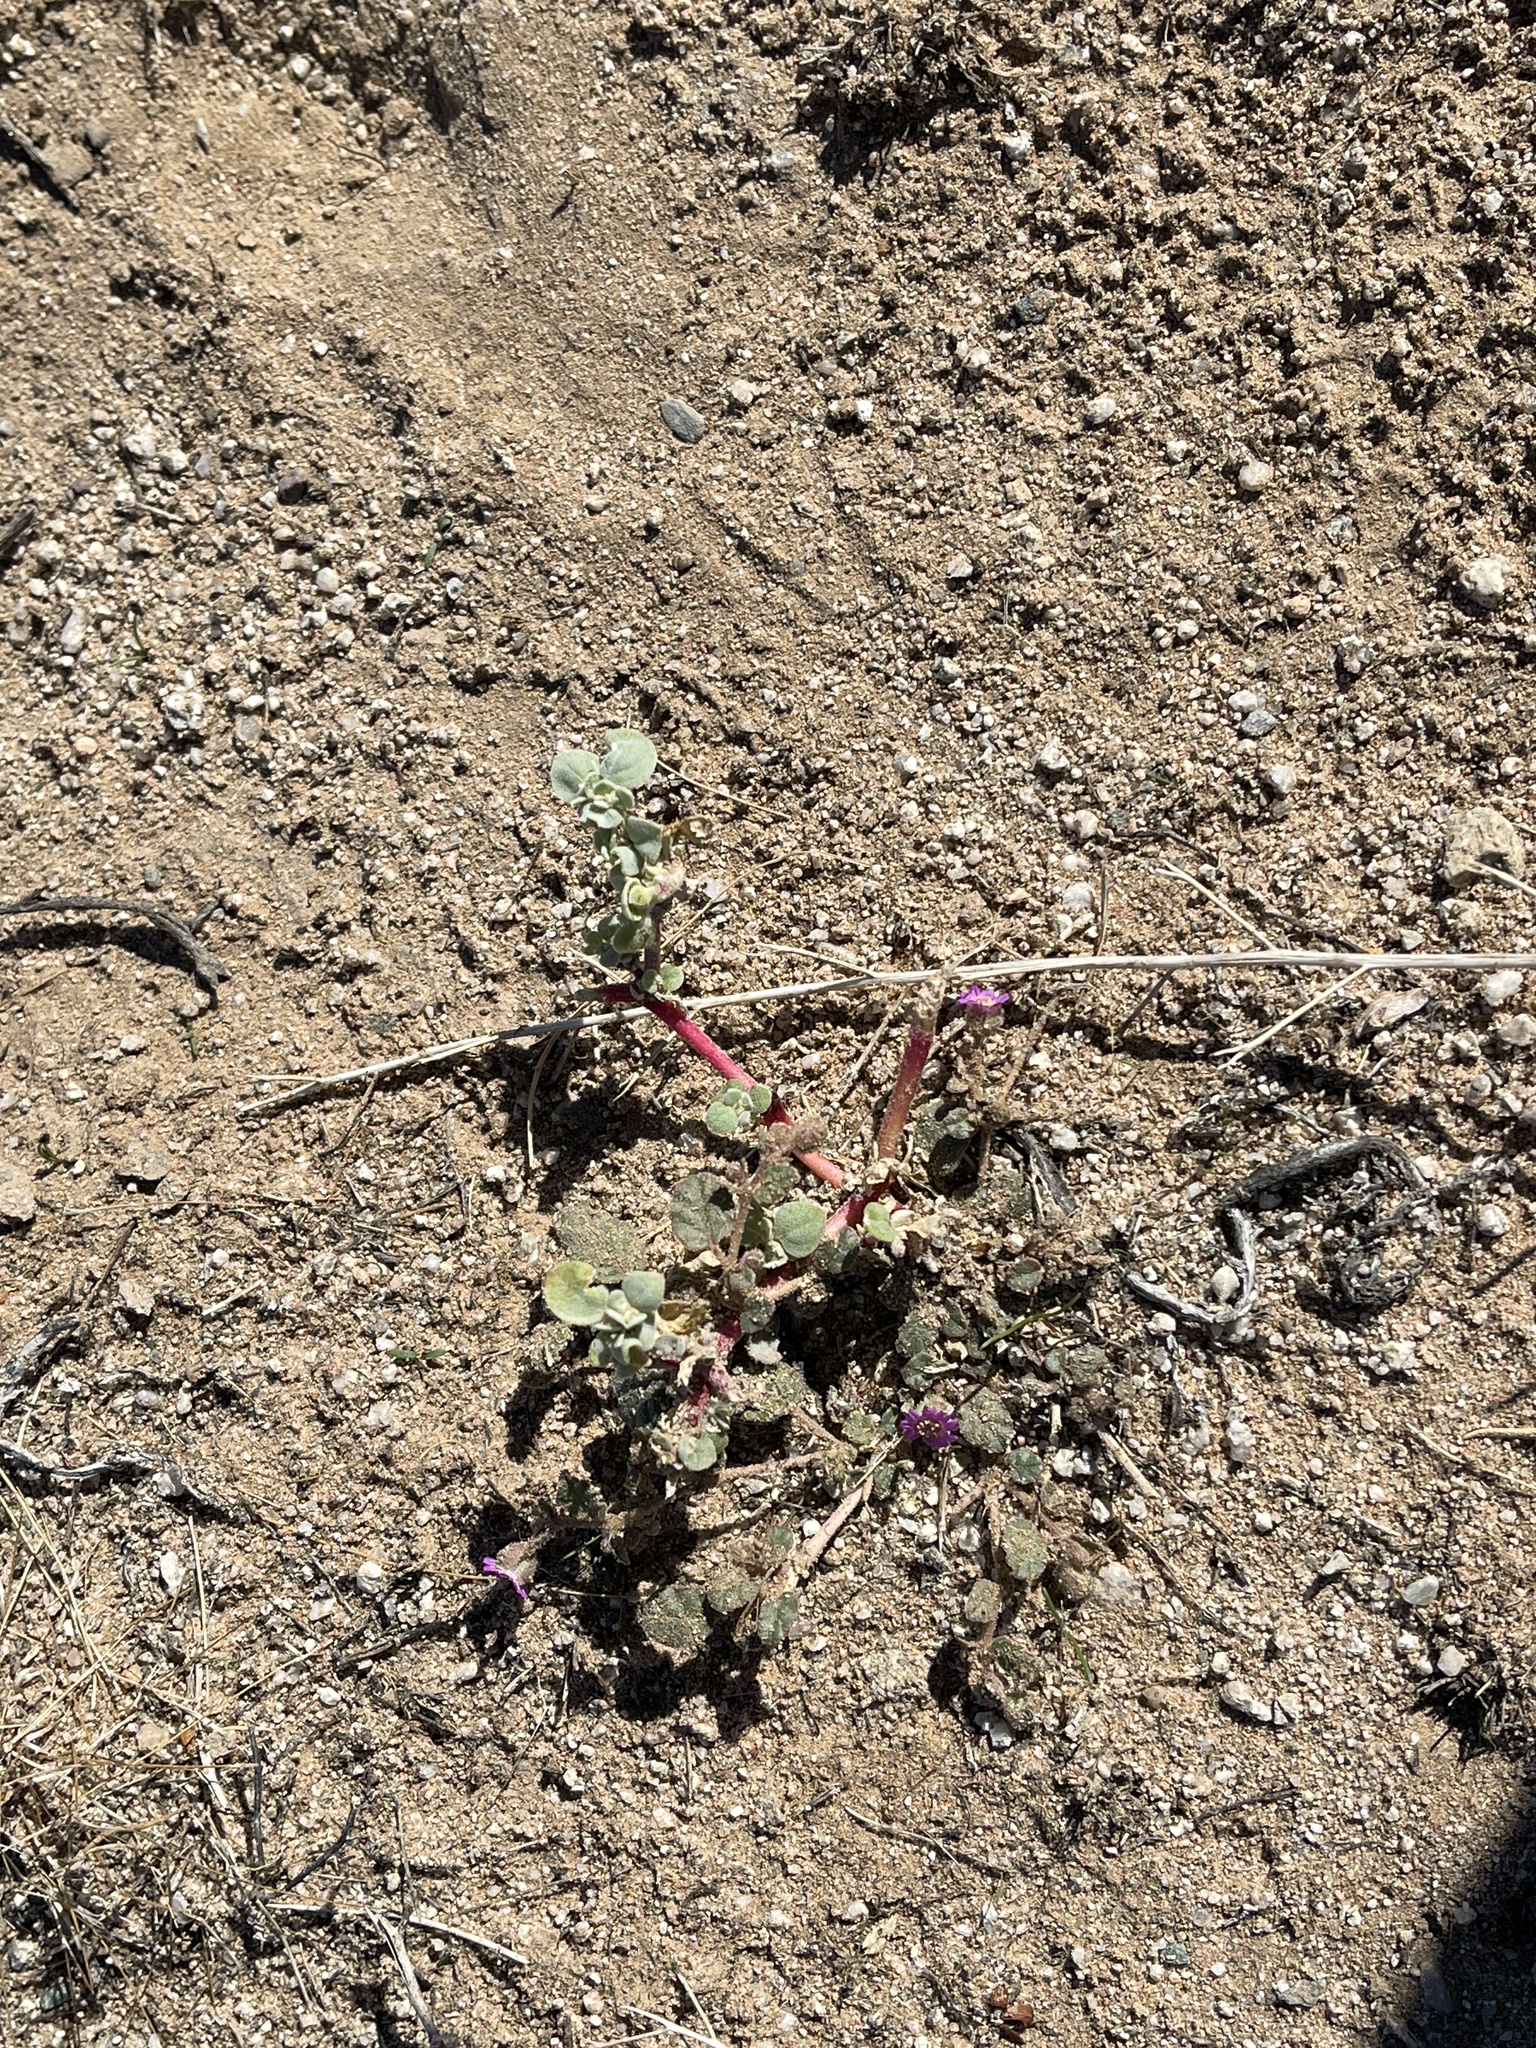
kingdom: Plantae
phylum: Tracheophyta
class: Magnoliopsida
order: Caryophyllales
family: Aizoaceae
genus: Trianthema
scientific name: Trianthema portulacastrum
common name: Desert horsepurslane
